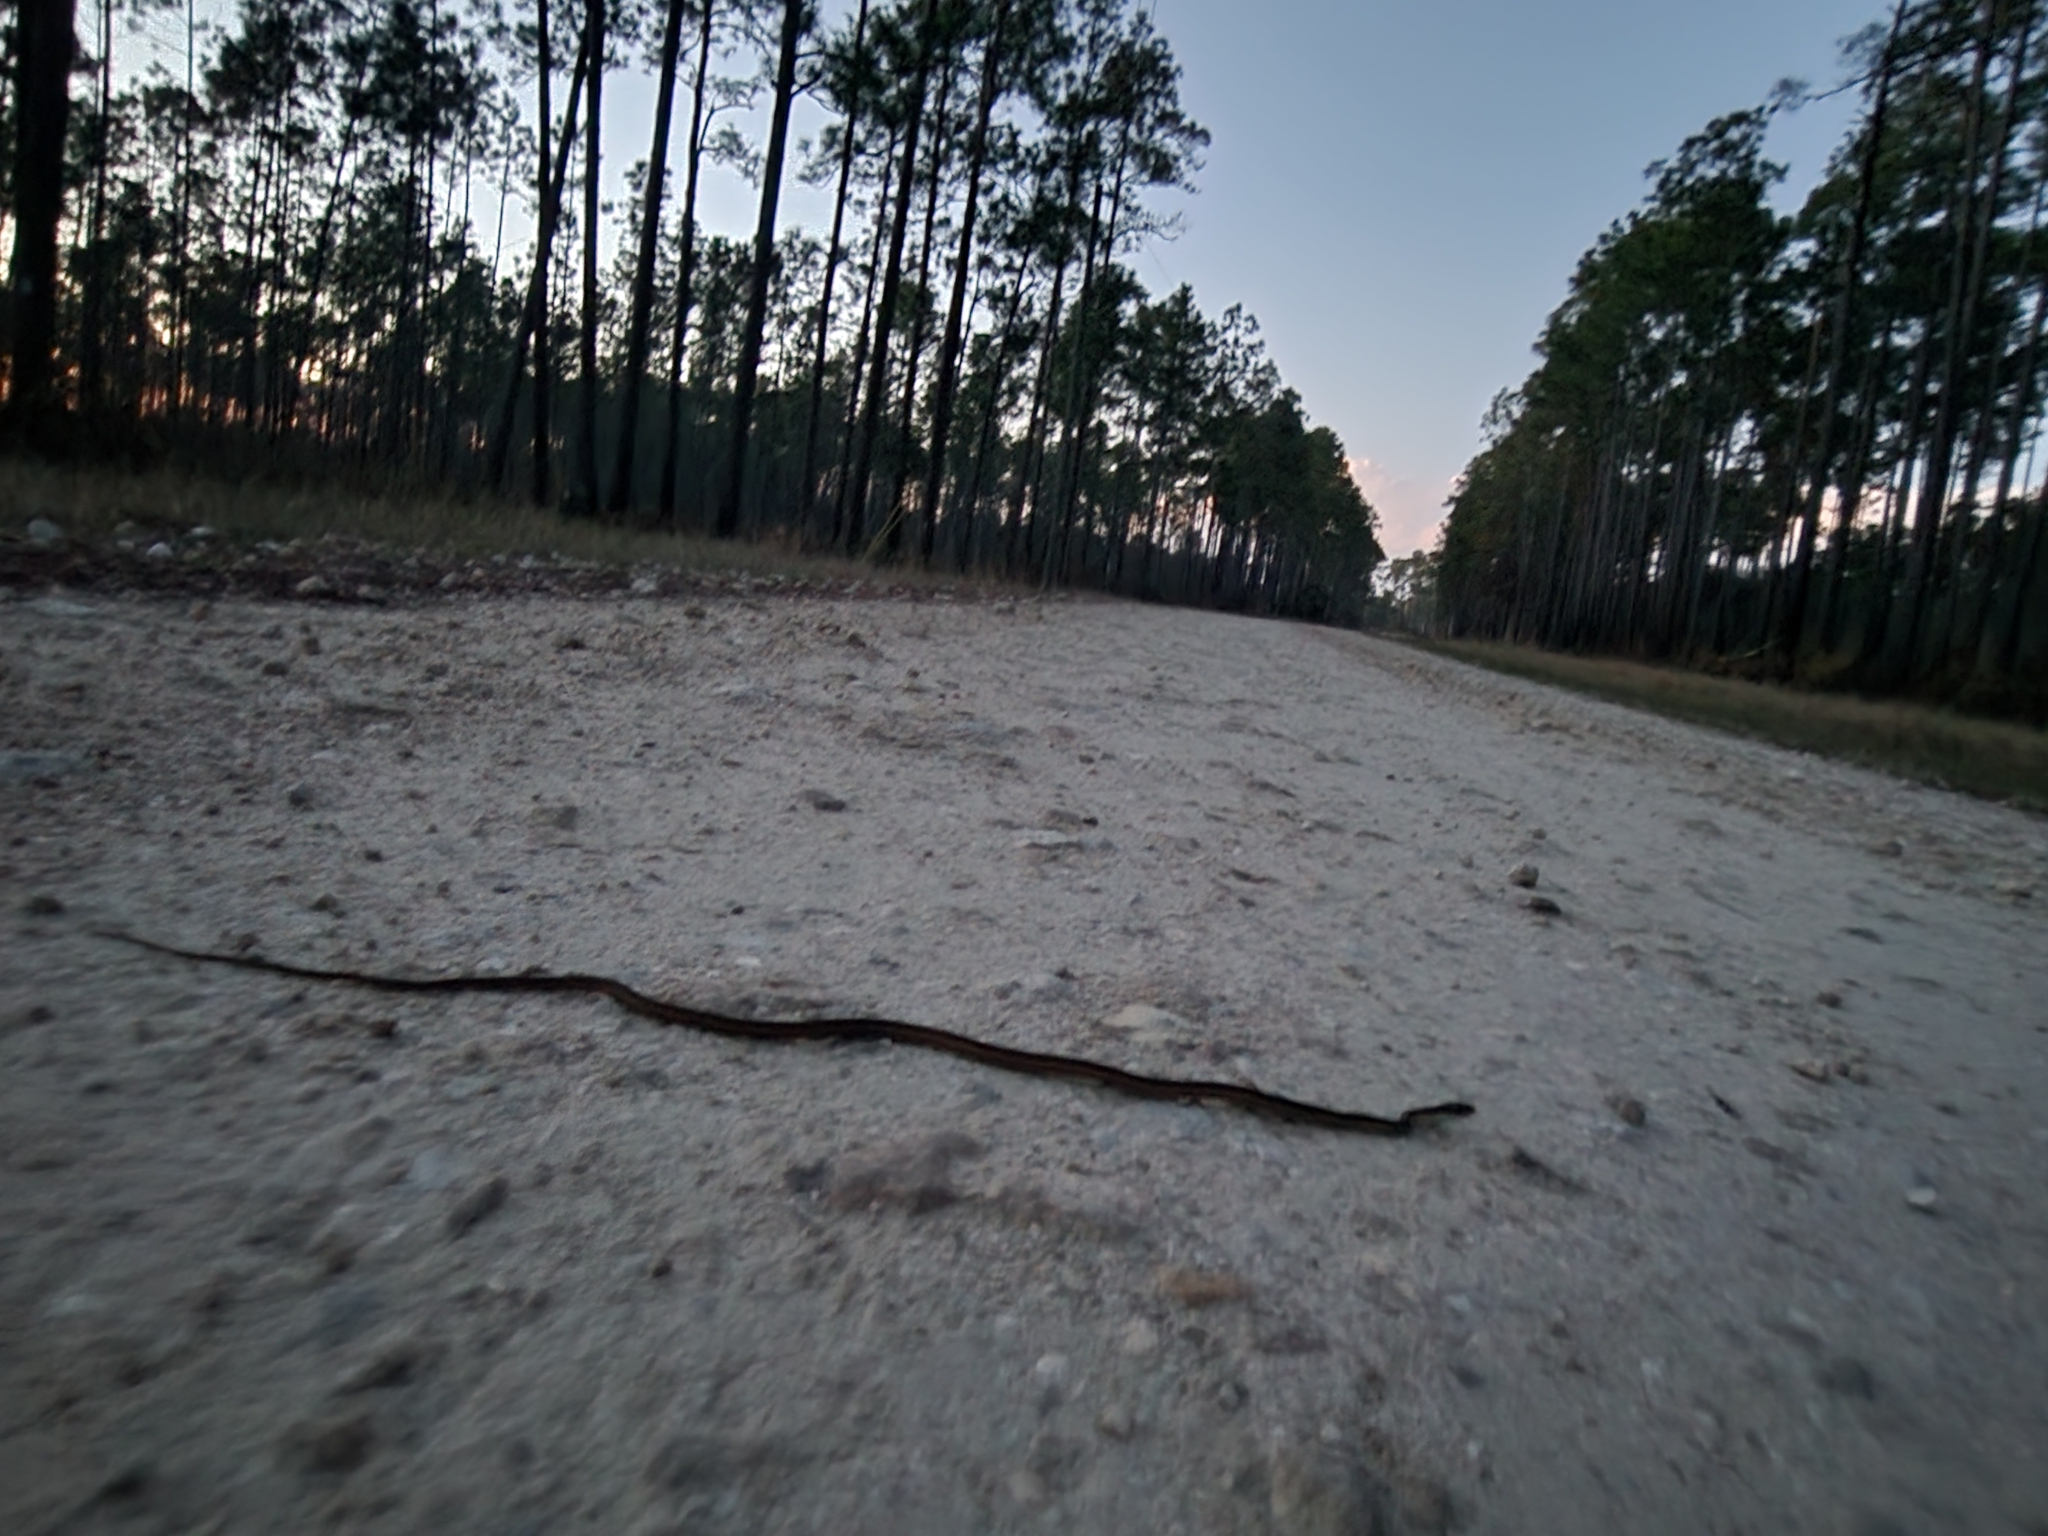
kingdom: Animalia
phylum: Chordata
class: Squamata
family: Colubridae
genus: Thamnophis
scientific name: Thamnophis saurita
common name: Eastern ribbonsnake
